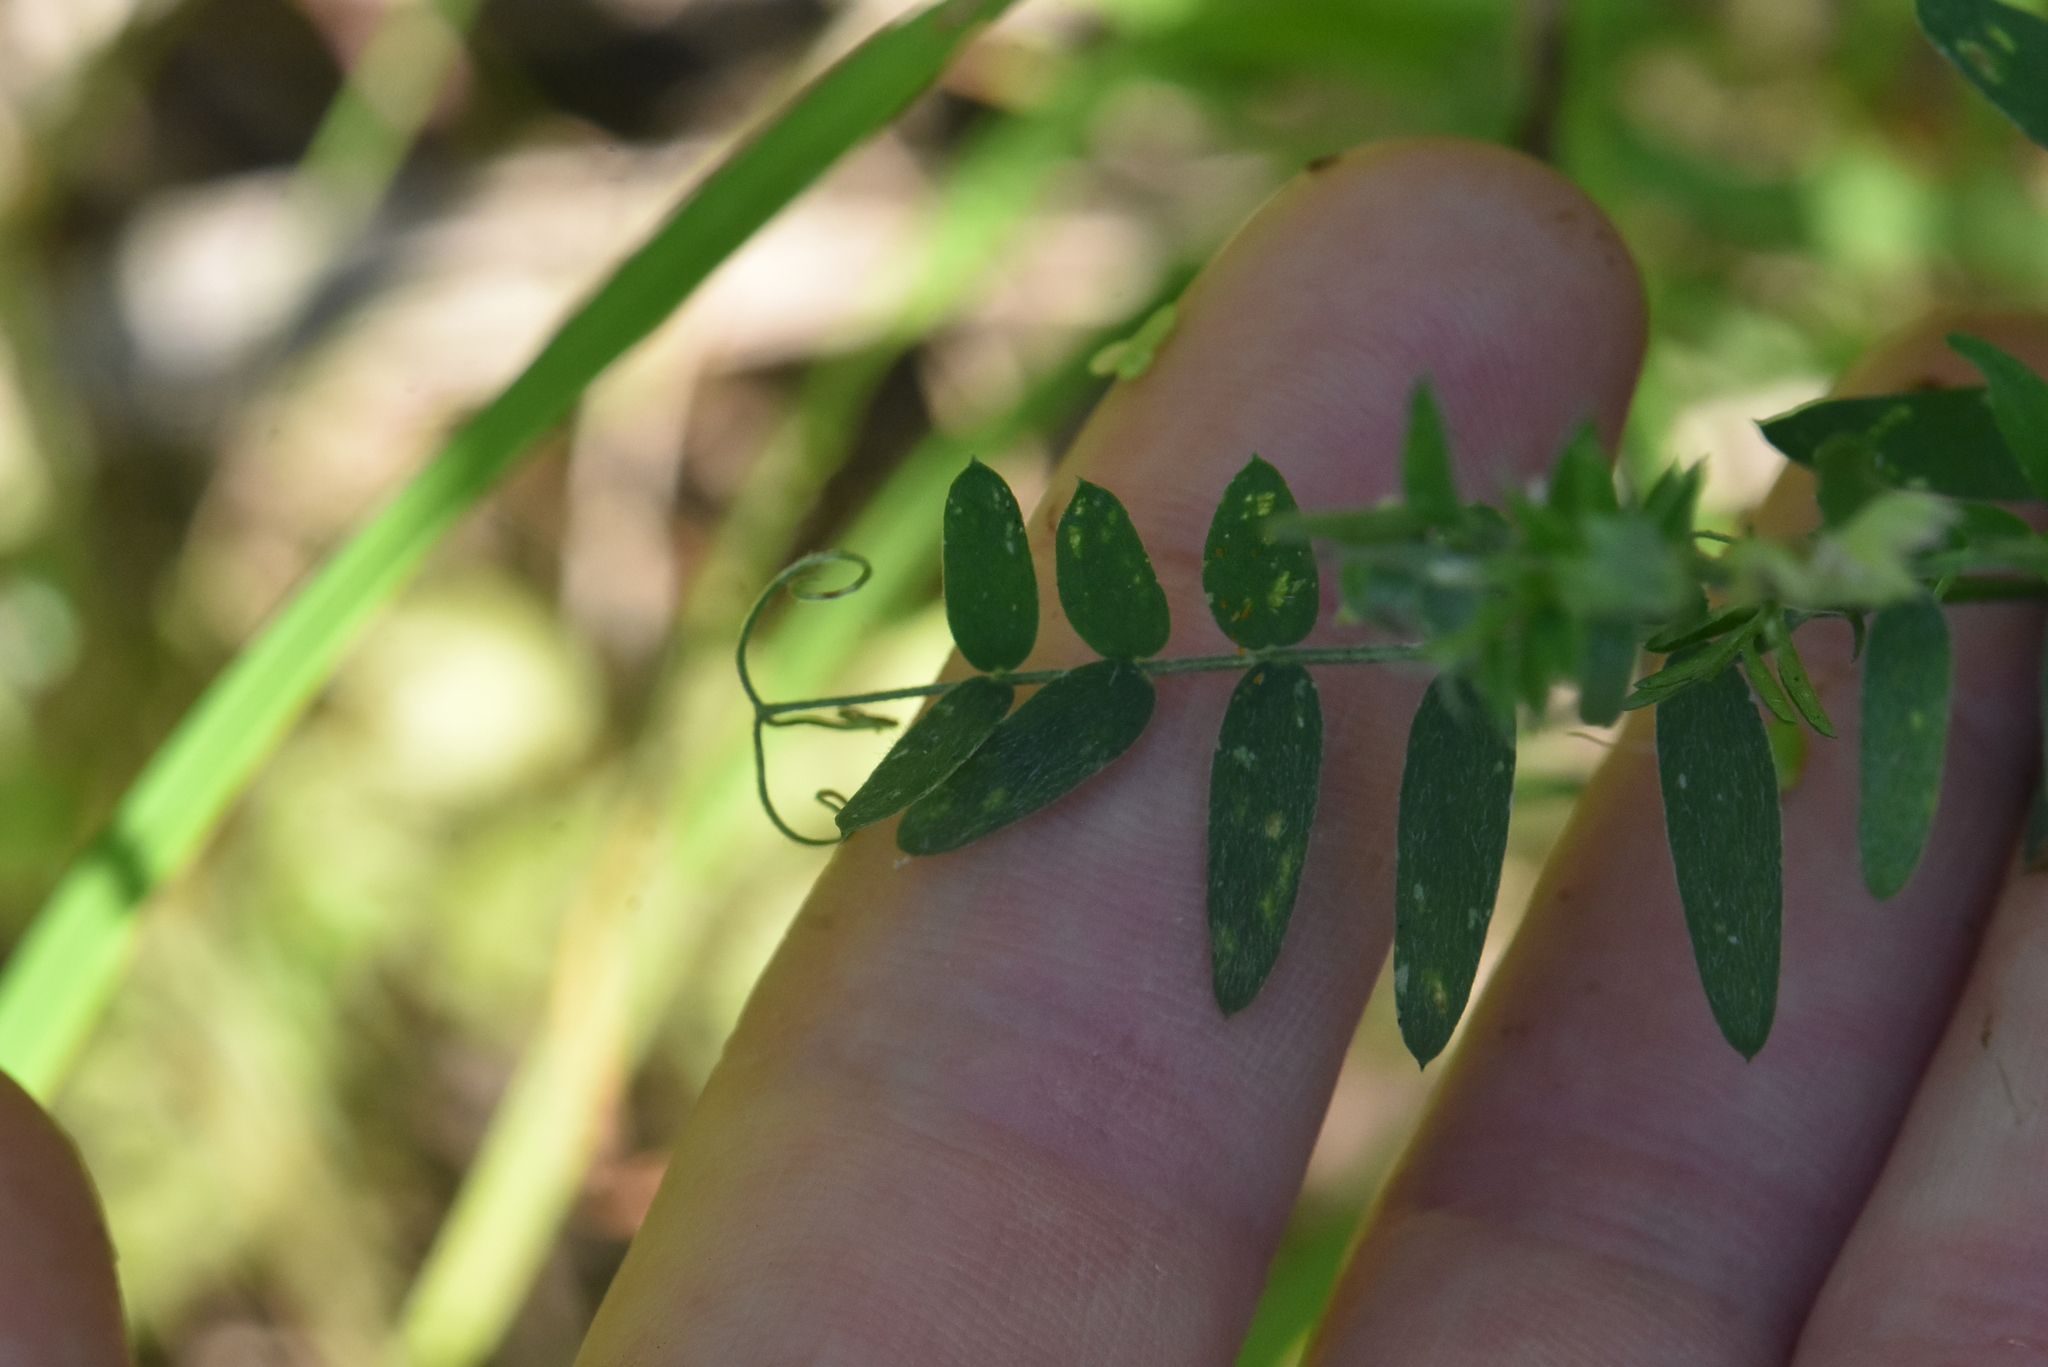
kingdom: Plantae
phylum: Tracheophyta
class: Magnoliopsida
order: Fabales
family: Fabaceae
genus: Vicia
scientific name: Vicia cracca
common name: Bird vetch
